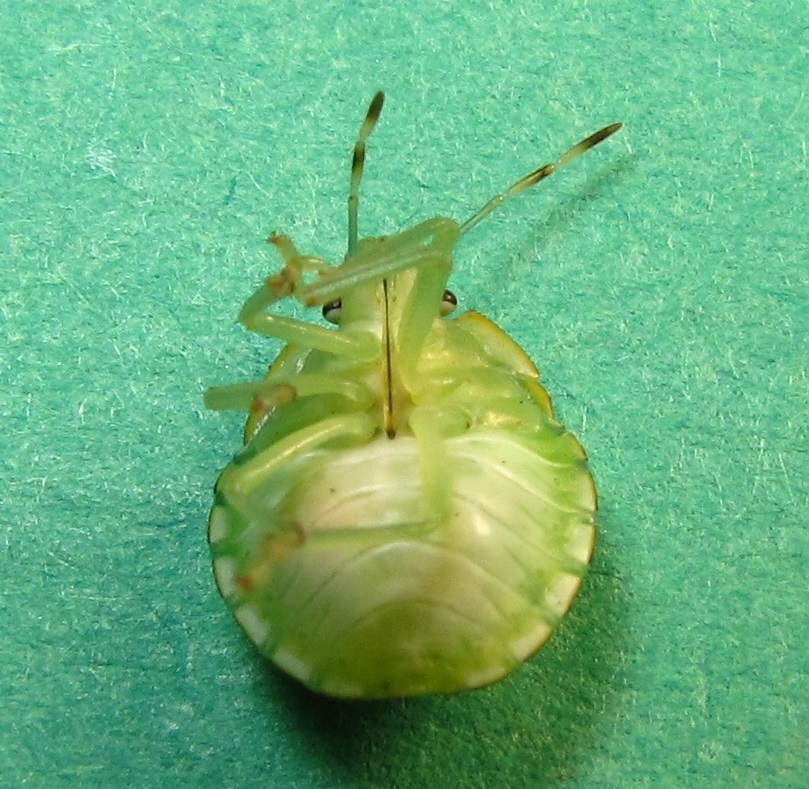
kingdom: Animalia
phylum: Arthropoda
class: Insecta
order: Hemiptera
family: Pentatomidae
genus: Chinavia
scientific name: Chinavia hilaris
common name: Green stink bug
